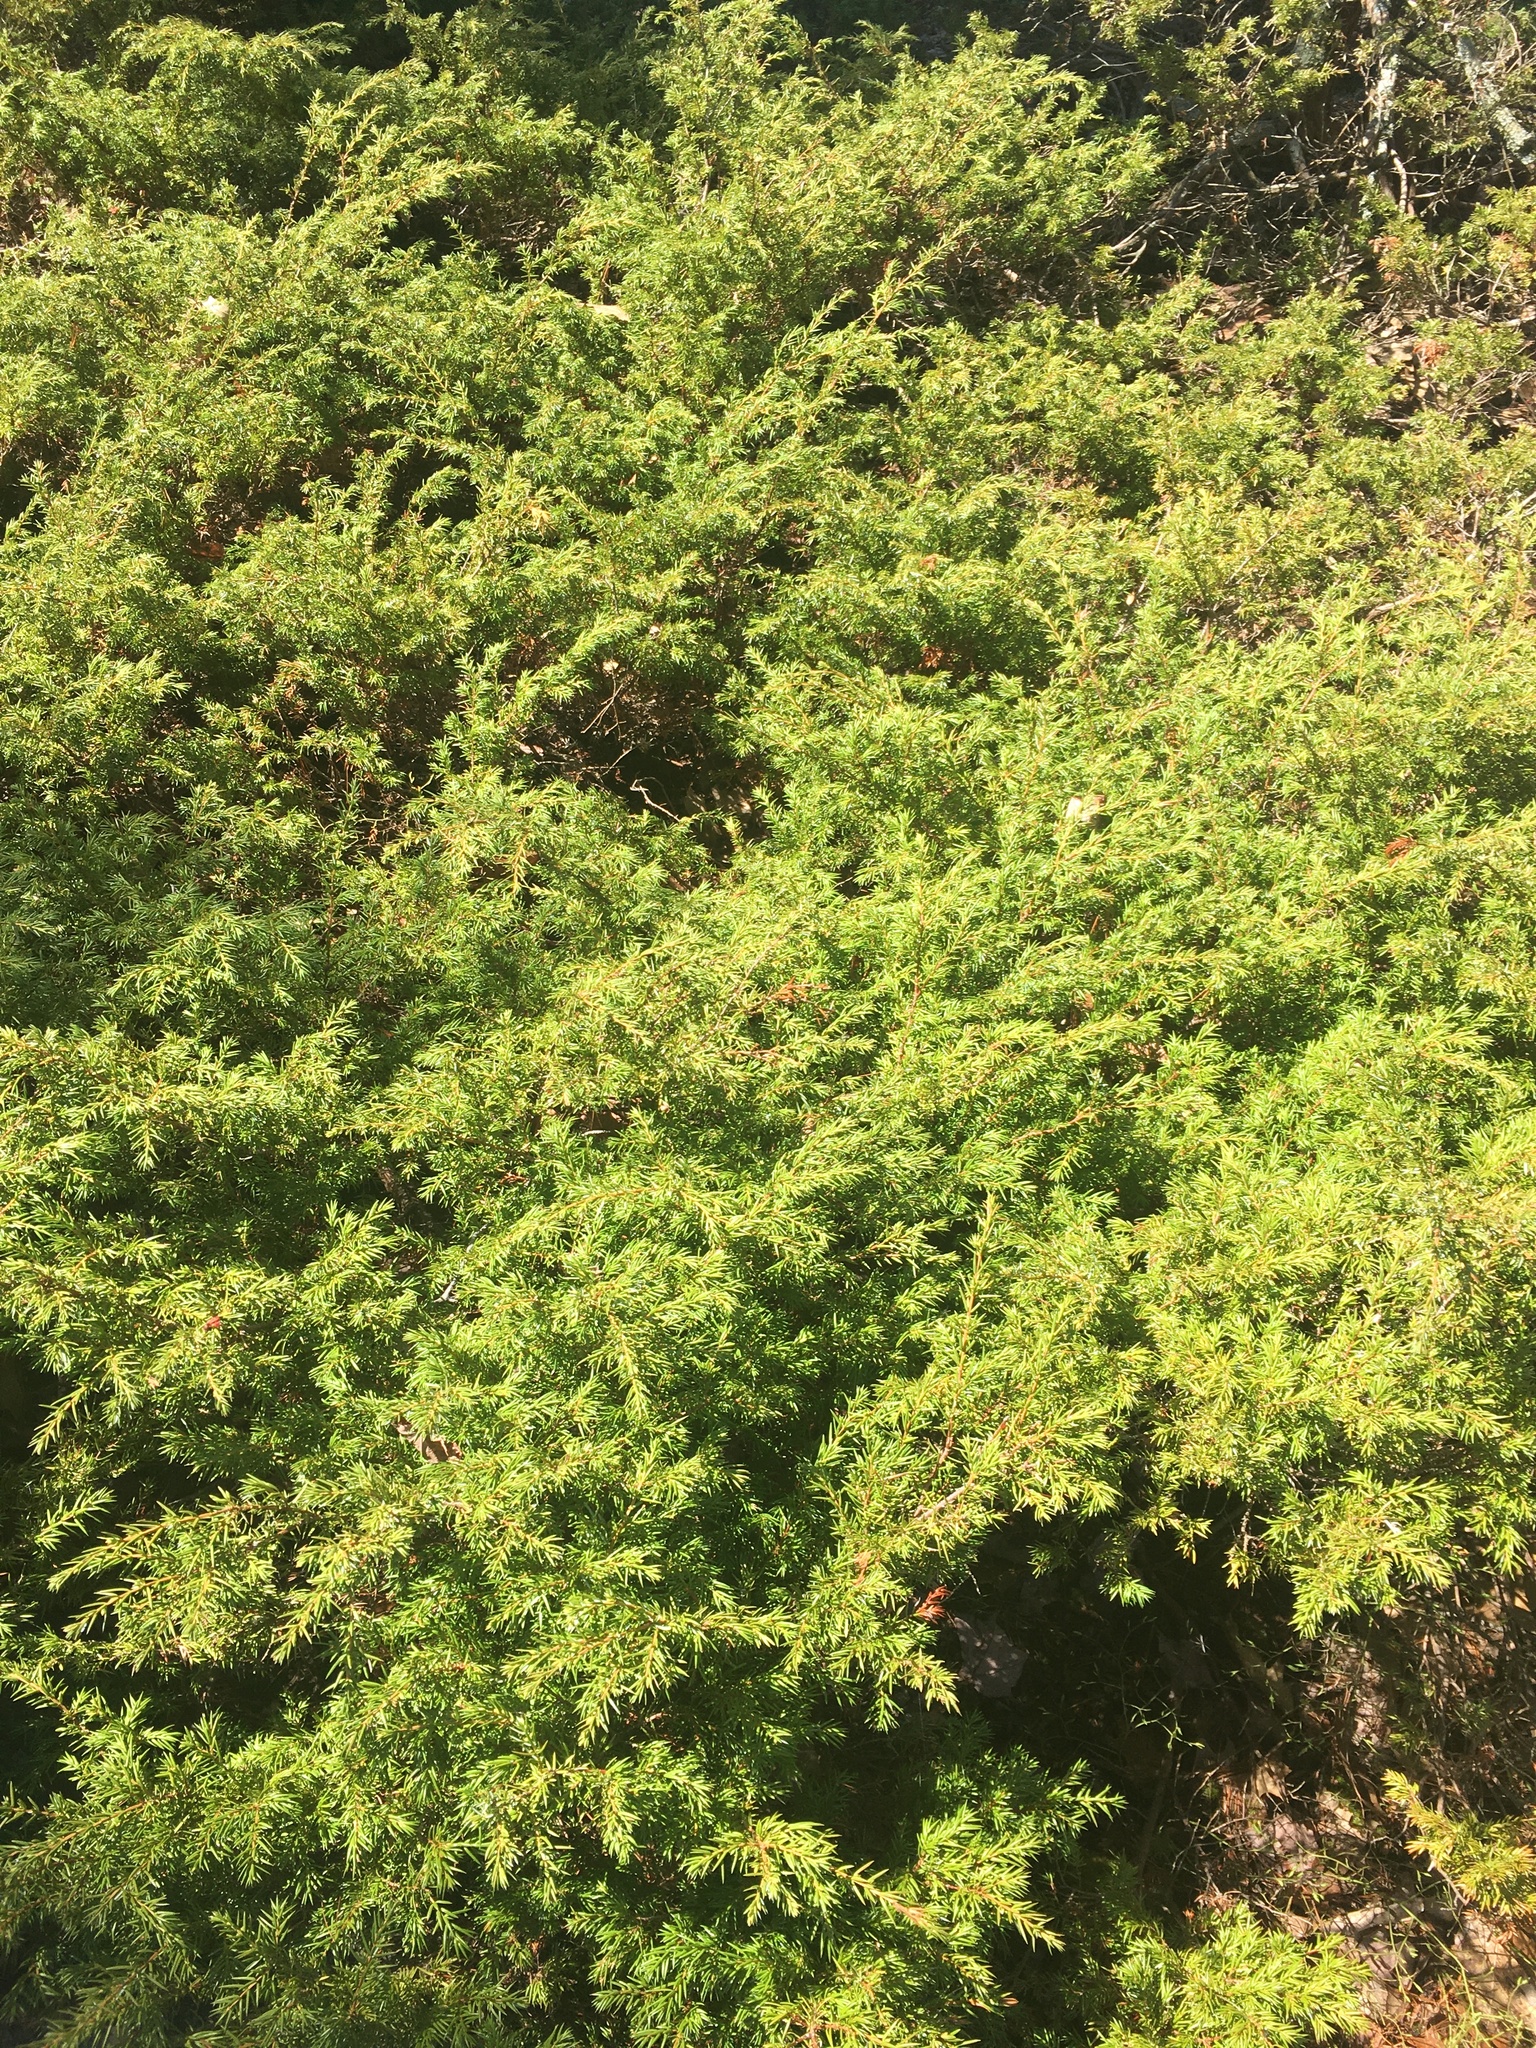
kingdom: Plantae
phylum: Tracheophyta
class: Pinopsida
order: Pinales
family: Cupressaceae
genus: Juniperus
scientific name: Juniperus communis
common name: Common juniper
